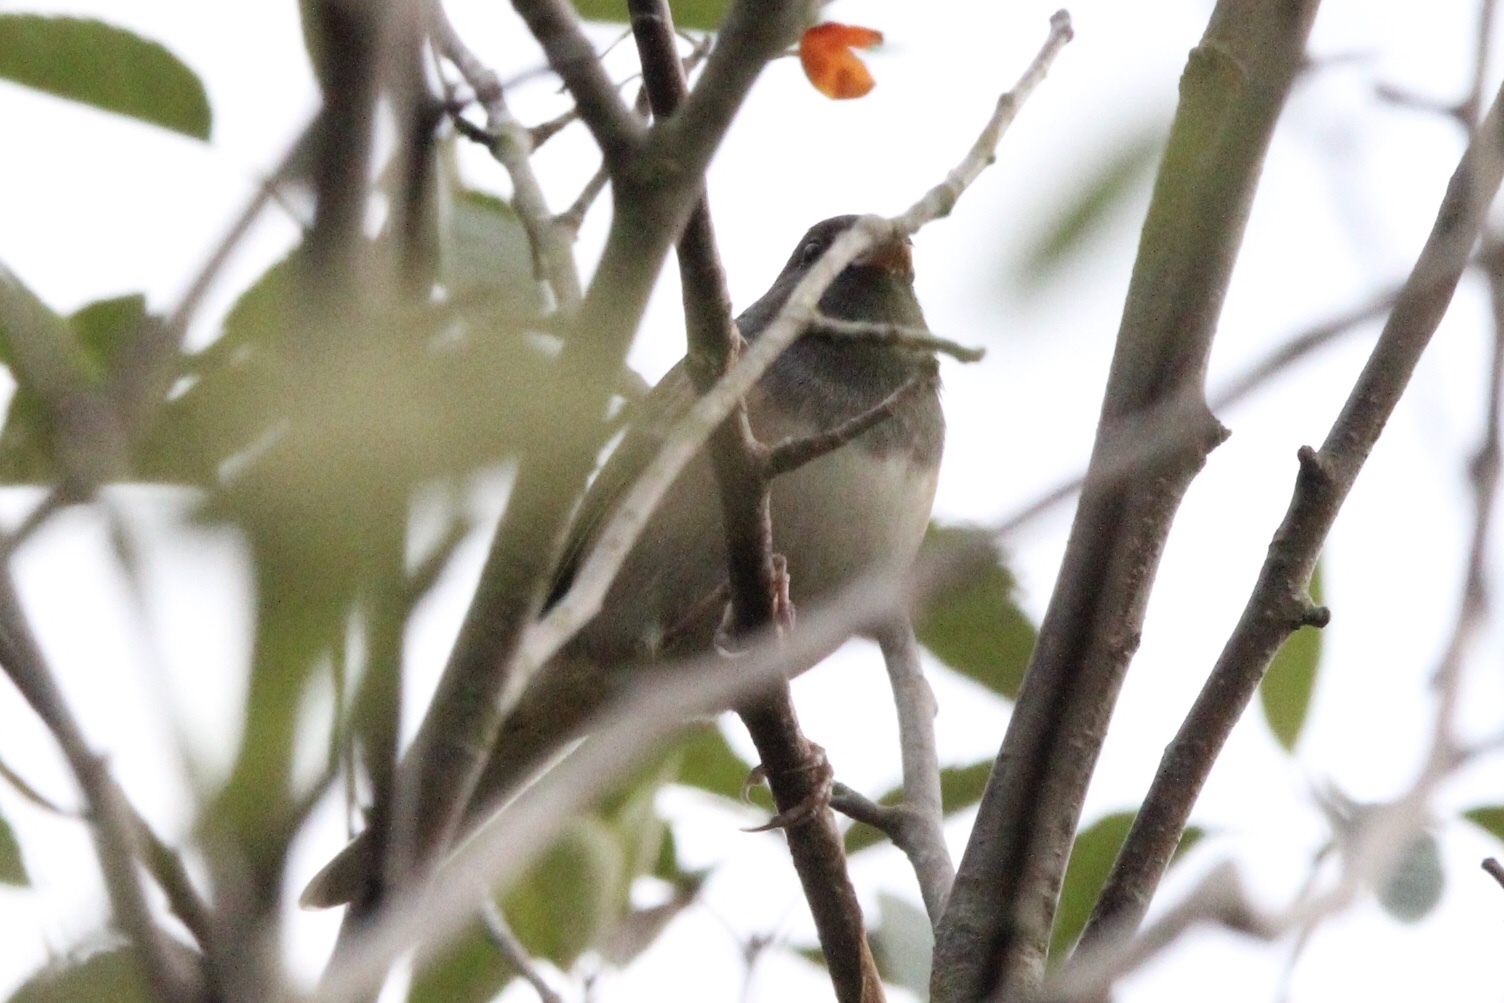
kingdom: Animalia
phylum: Chordata
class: Aves
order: Passeriformes
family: Passerellidae
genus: Junco
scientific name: Junco hyemalis
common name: Dark-eyed junco
